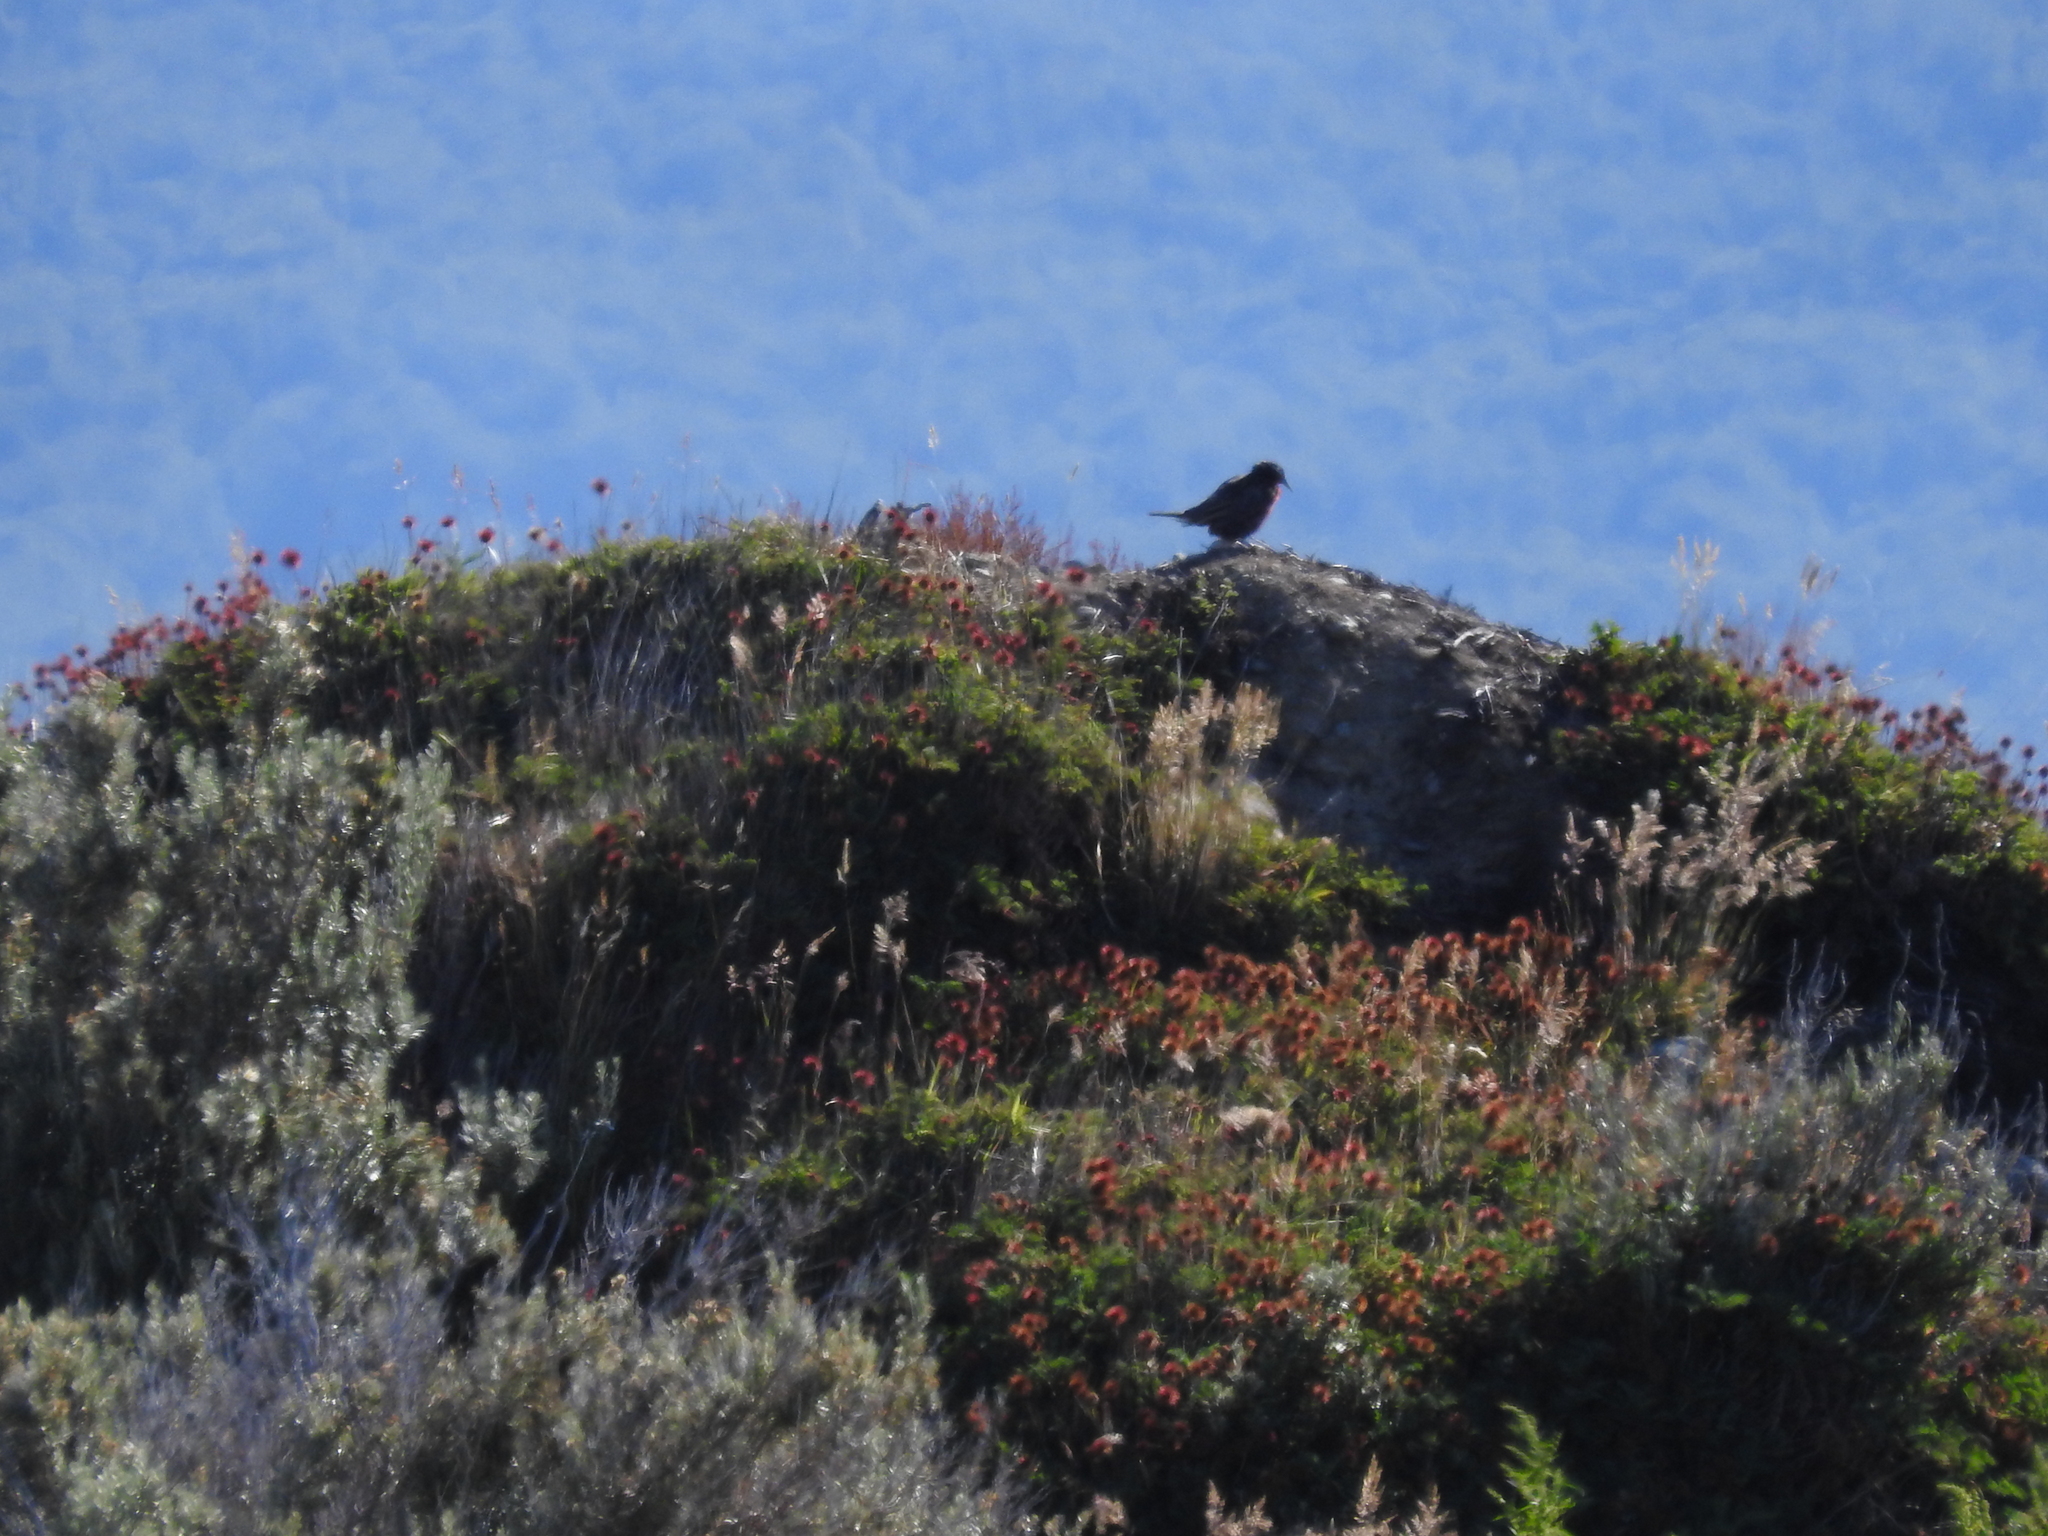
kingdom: Animalia
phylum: Chordata
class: Aves
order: Passeriformes
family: Icteridae
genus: Sturnella
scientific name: Sturnella loyca
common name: Long-tailed meadowlark
